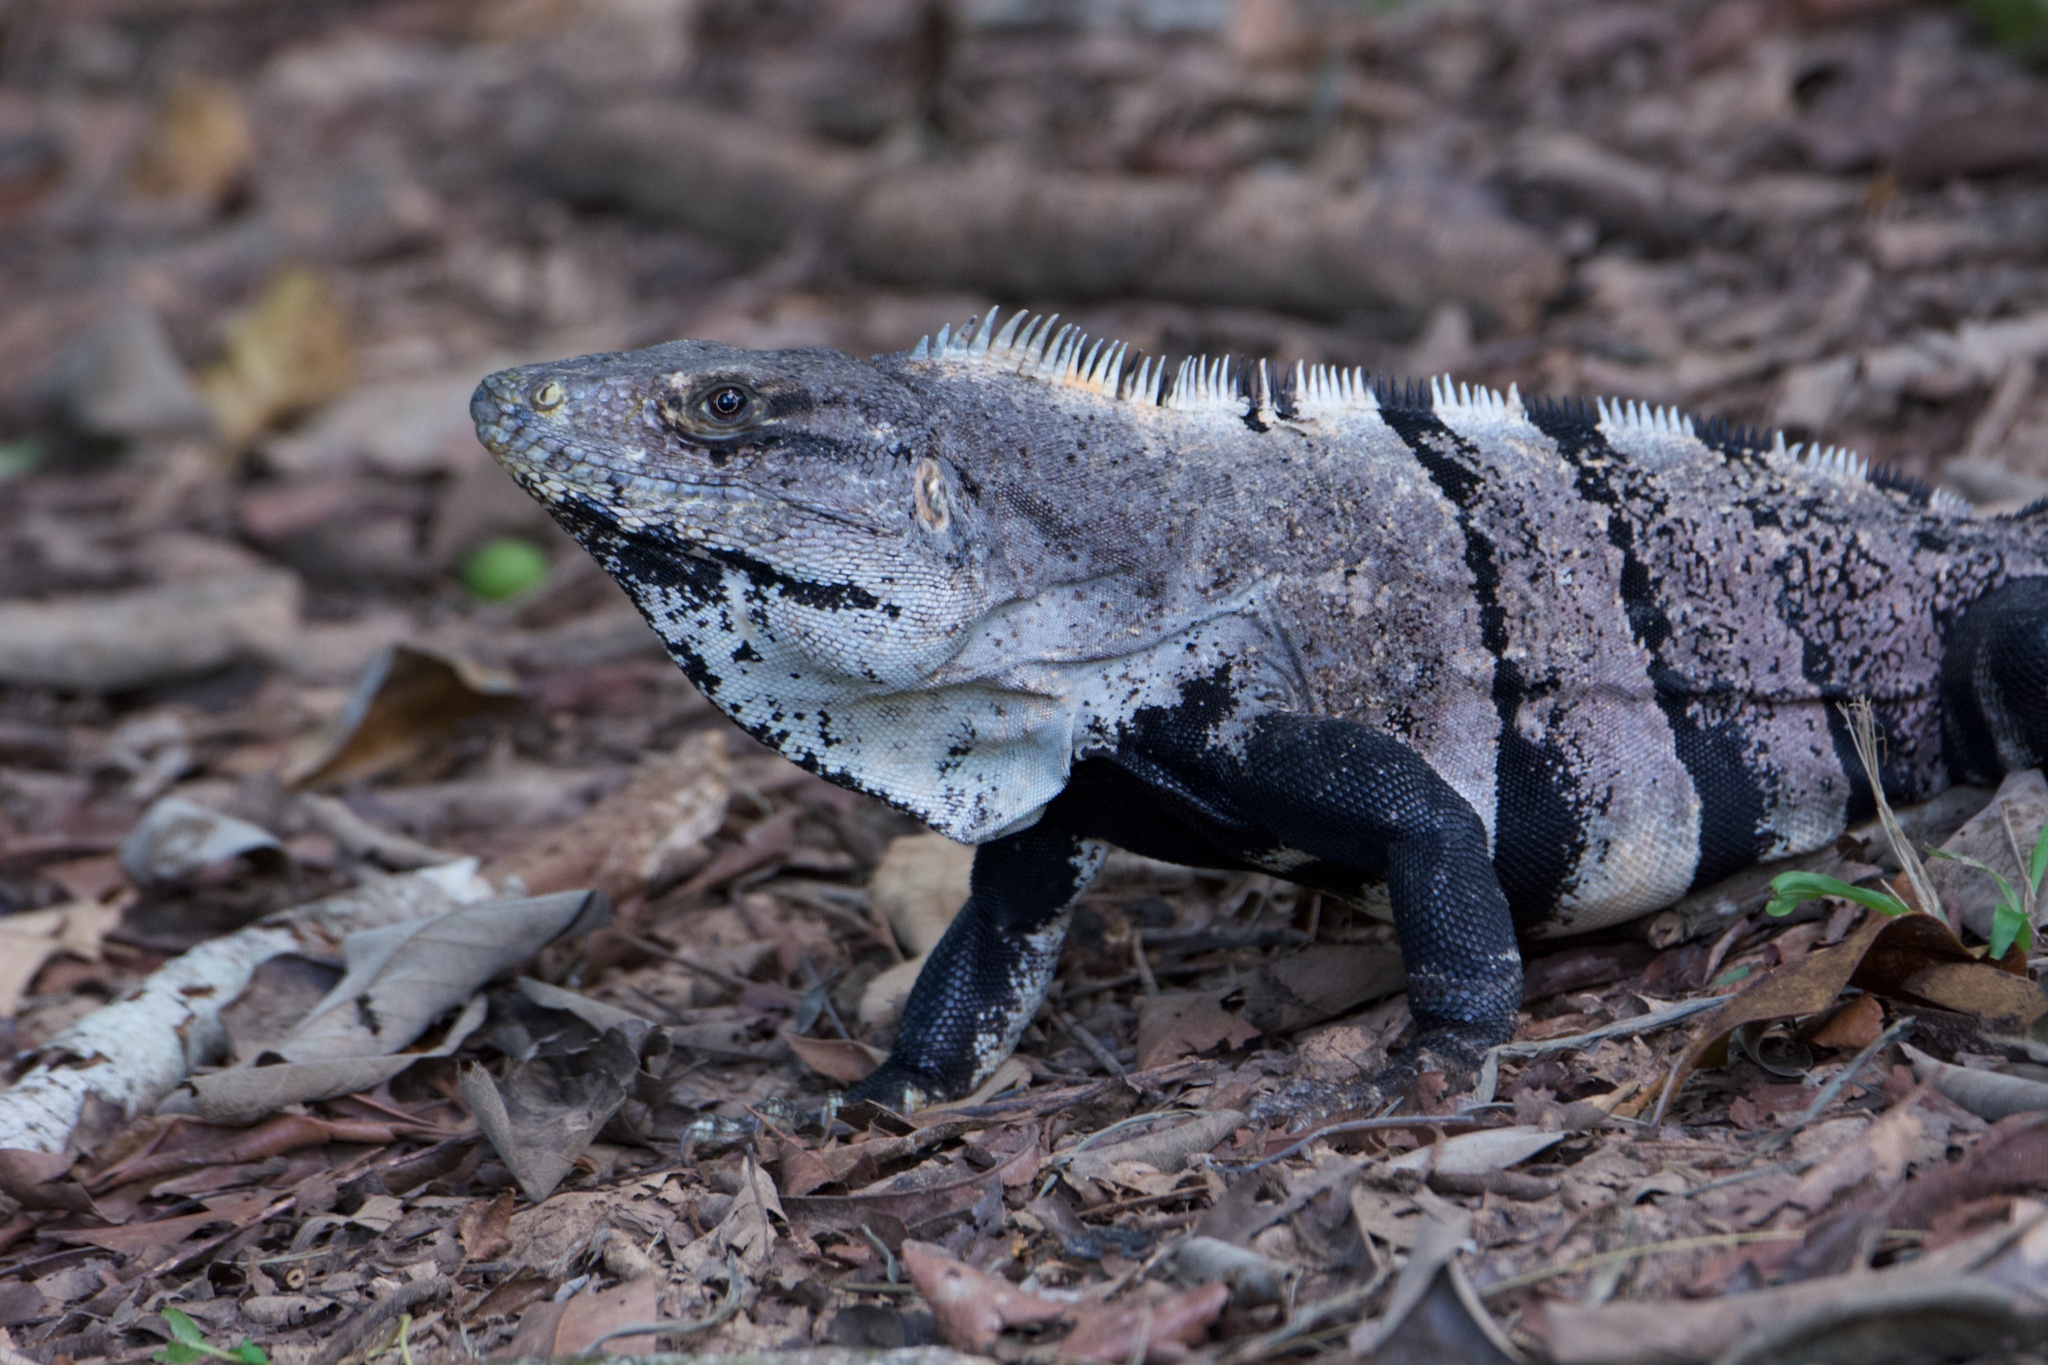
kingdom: Animalia
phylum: Chordata
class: Squamata
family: Iguanidae
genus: Ctenosaura
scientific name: Ctenosaura similis
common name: Black spiny-tailed iguana
